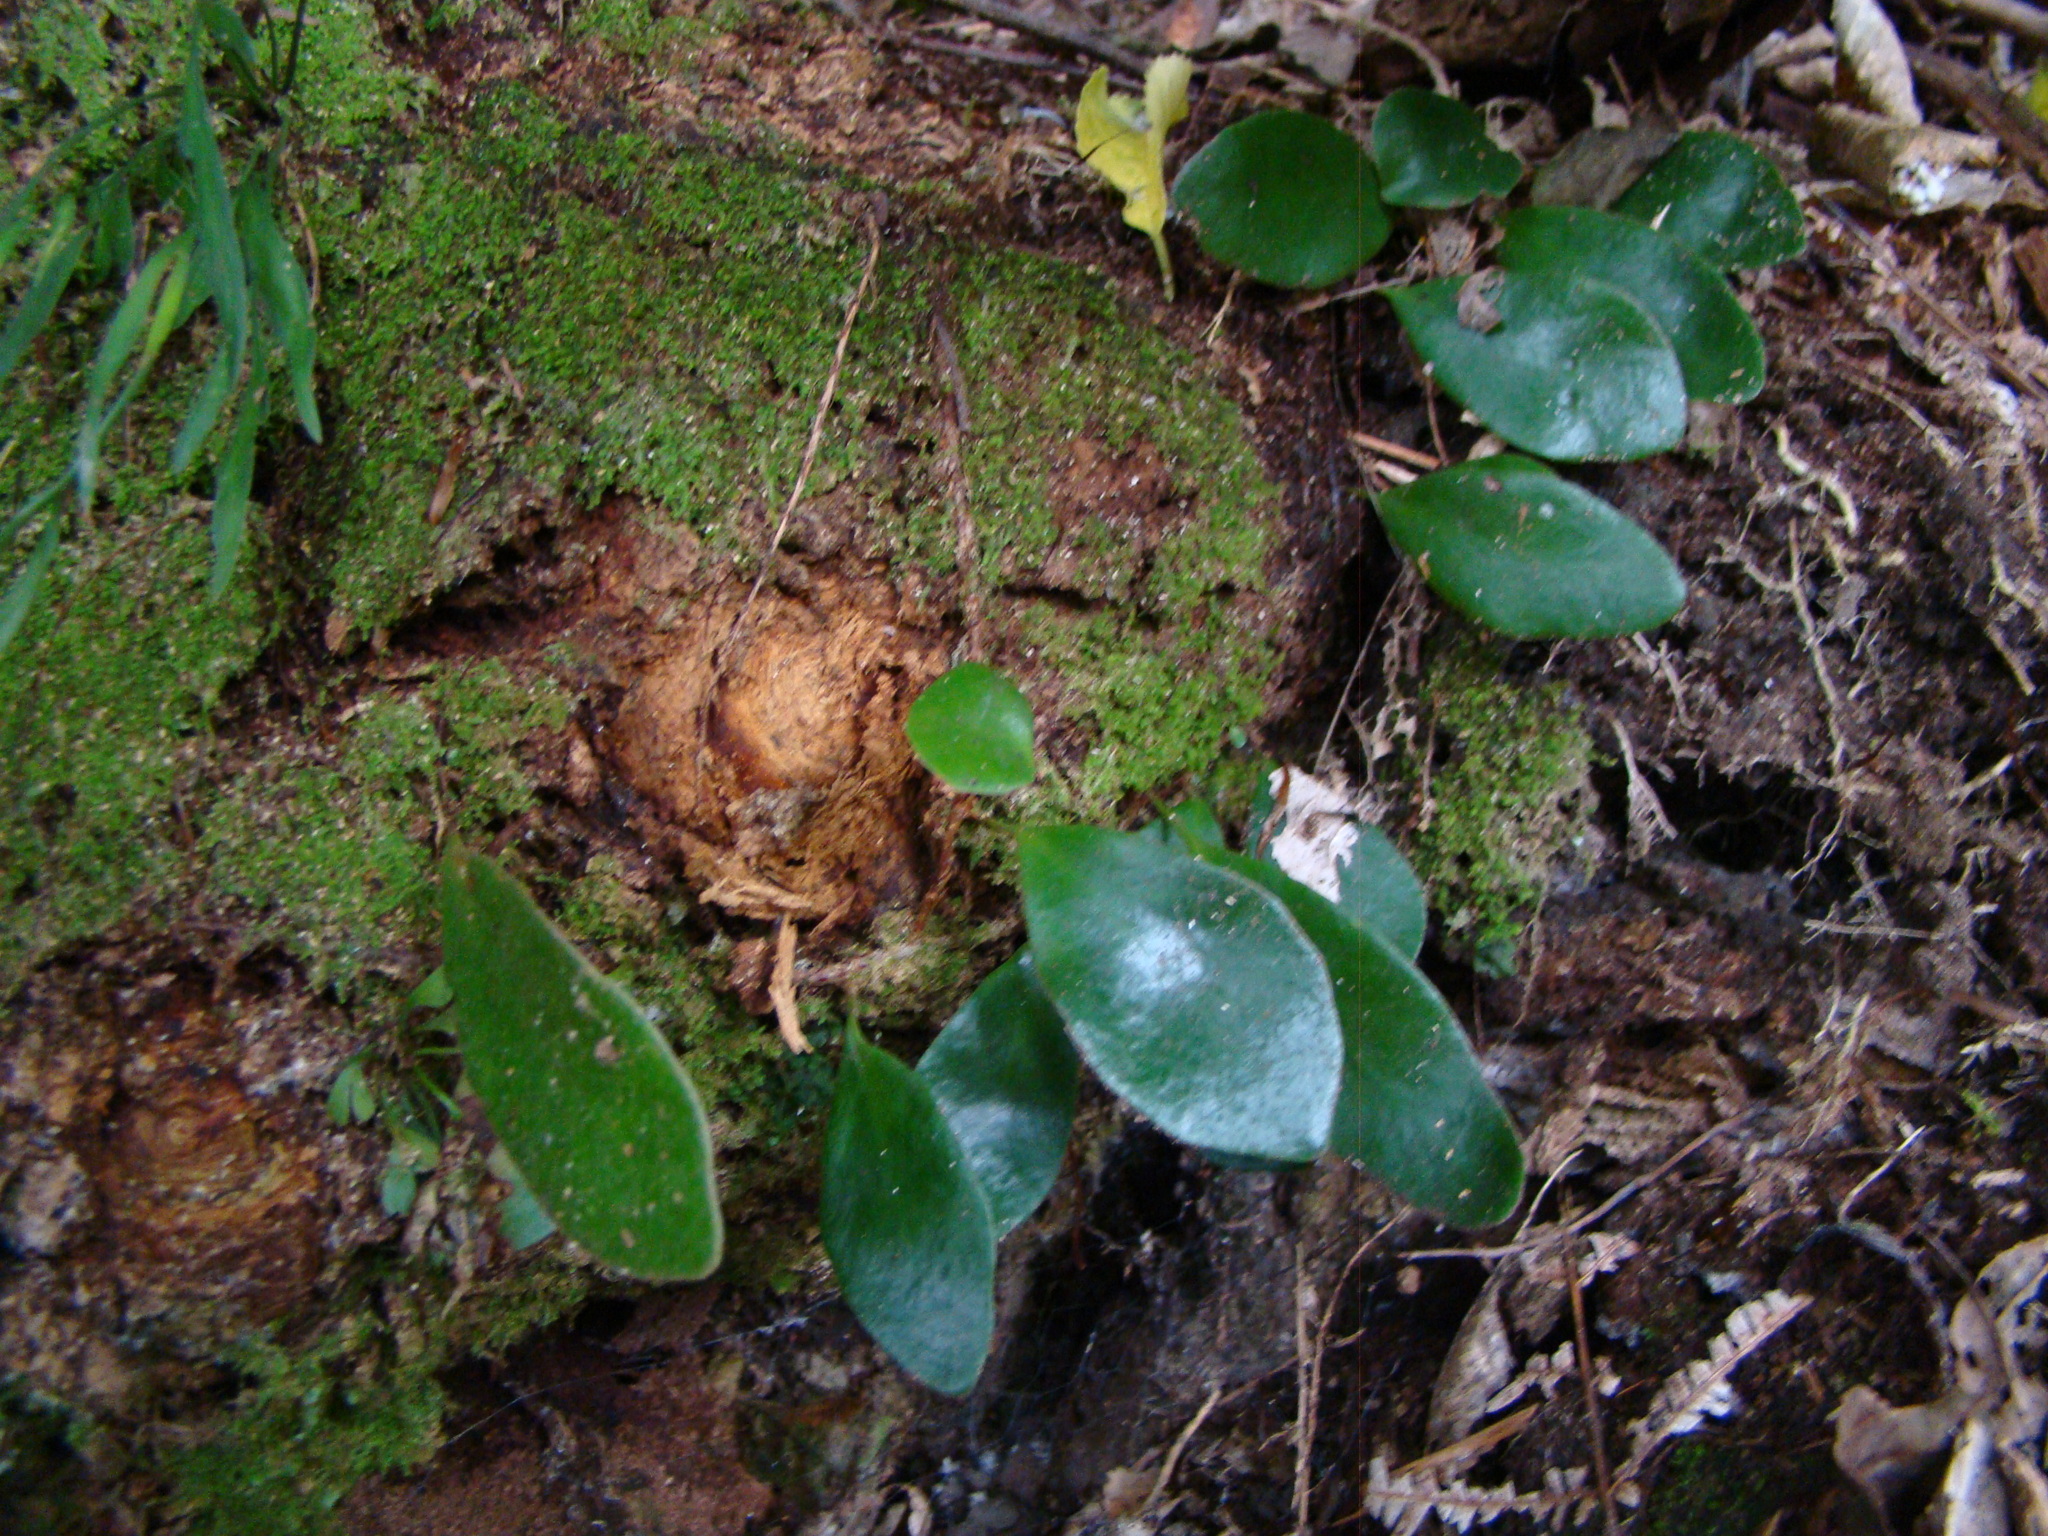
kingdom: Plantae
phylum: Tracheophyta
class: Polypodiopsida
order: Polypodiales
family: Polypodiaceae
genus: Pyrrosia
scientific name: Pyrrosia eleagnifolia
